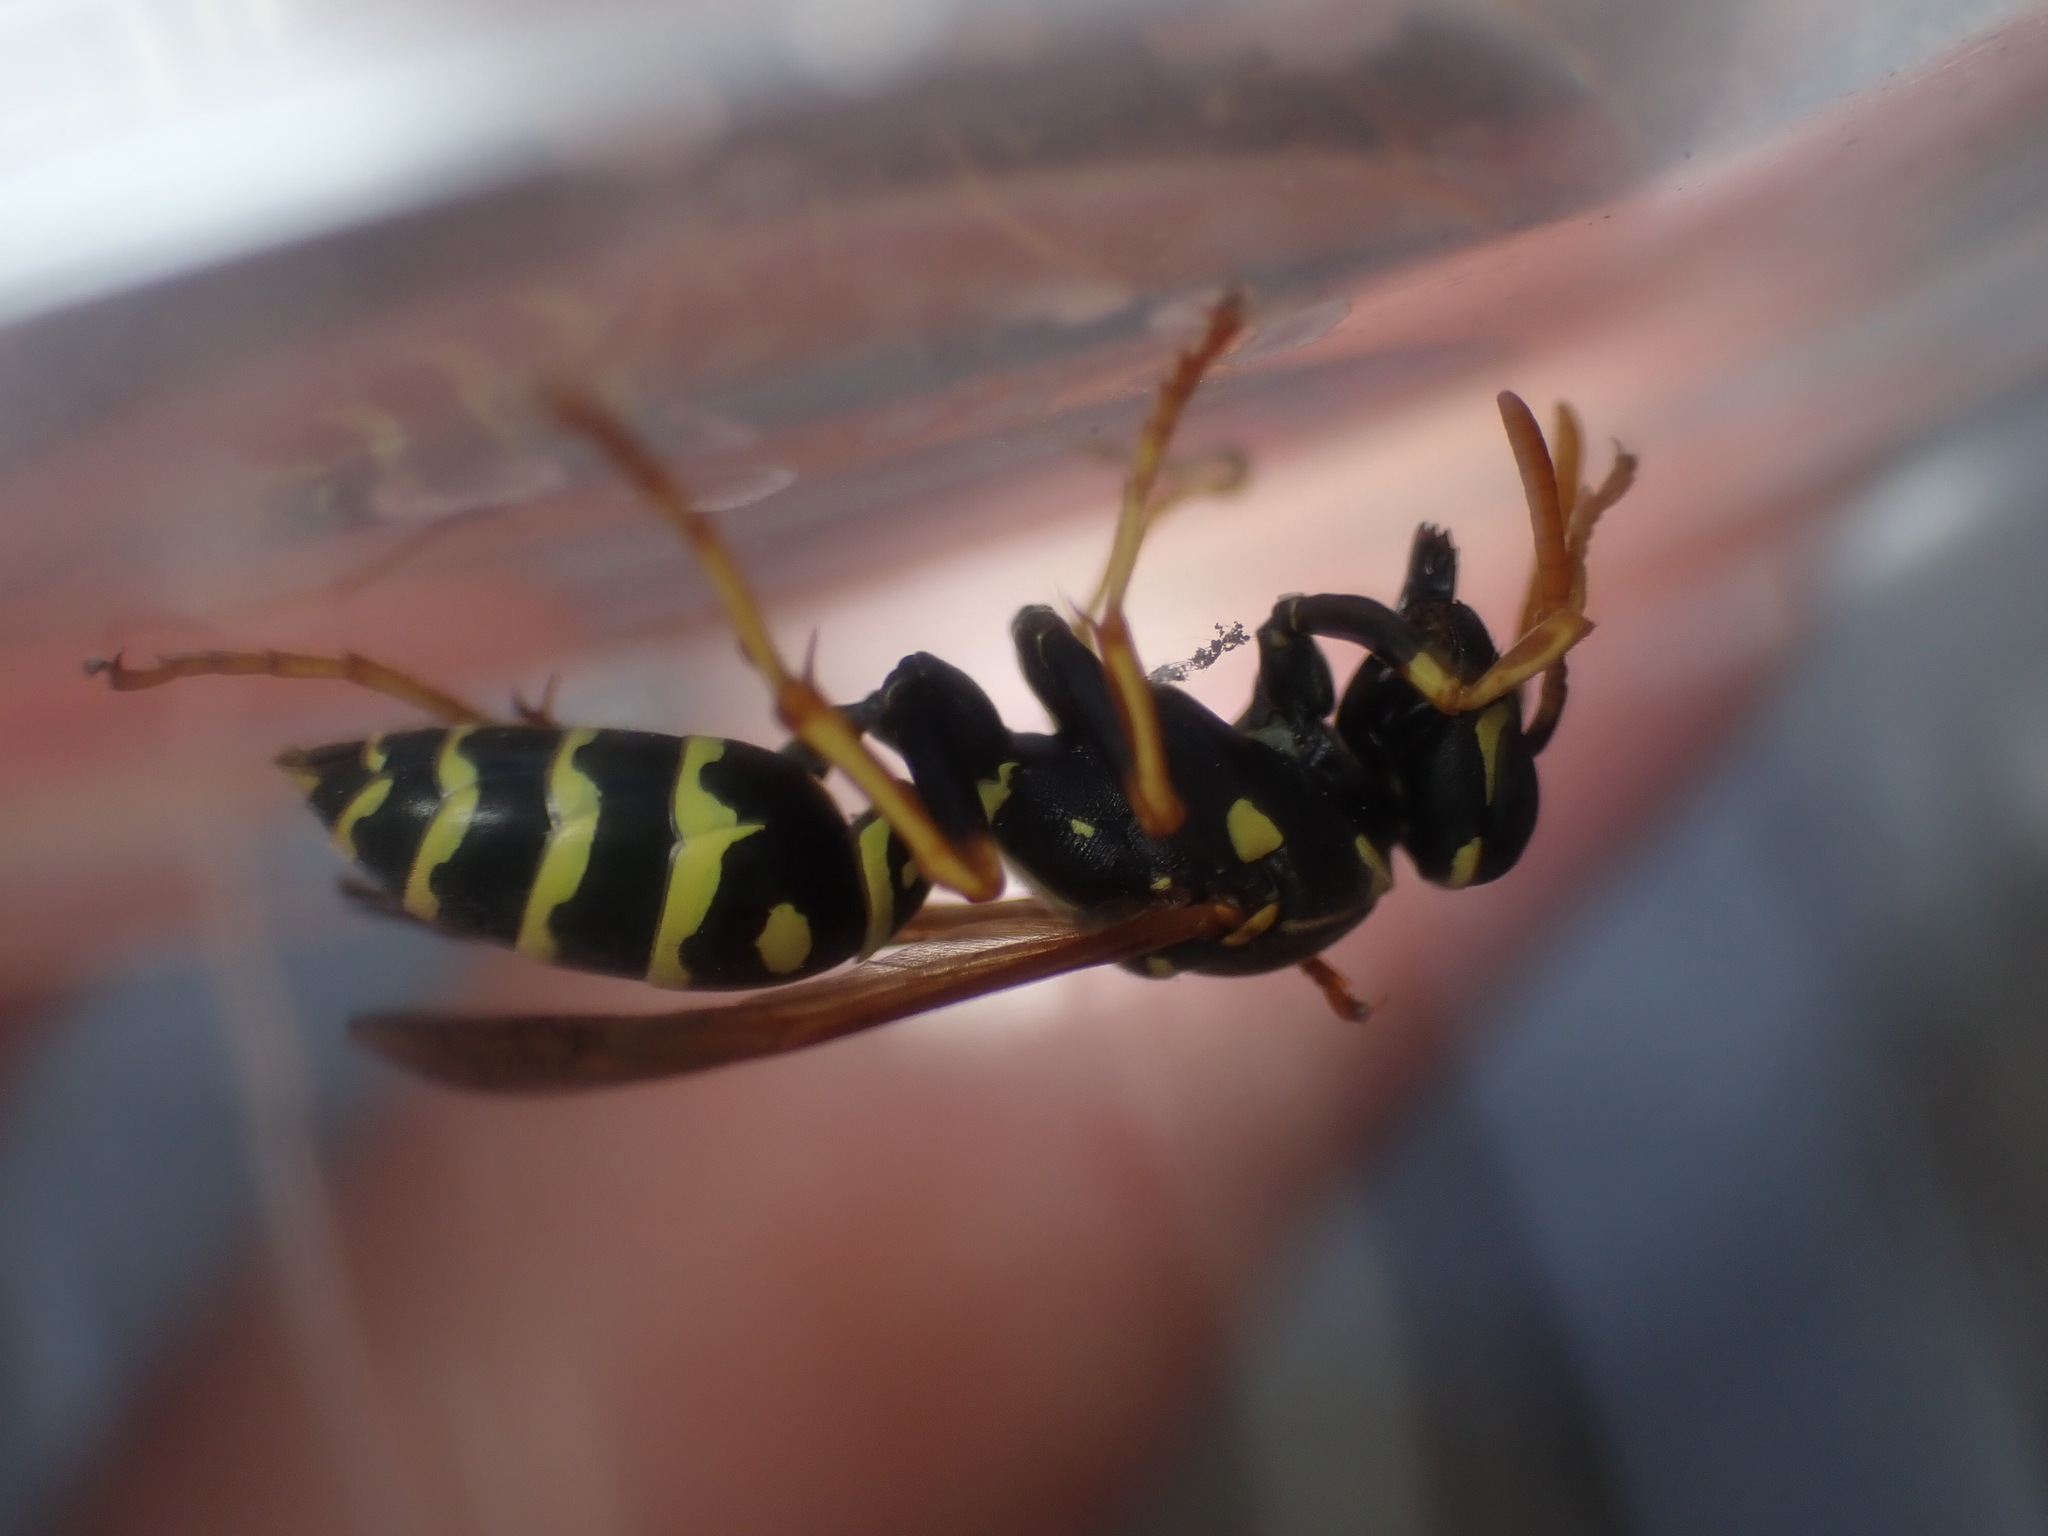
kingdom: Animalia
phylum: Arthropoda
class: Insecta
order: Hymenoptera
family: Eumenidae
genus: Polistes
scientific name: Polistes nimpha
